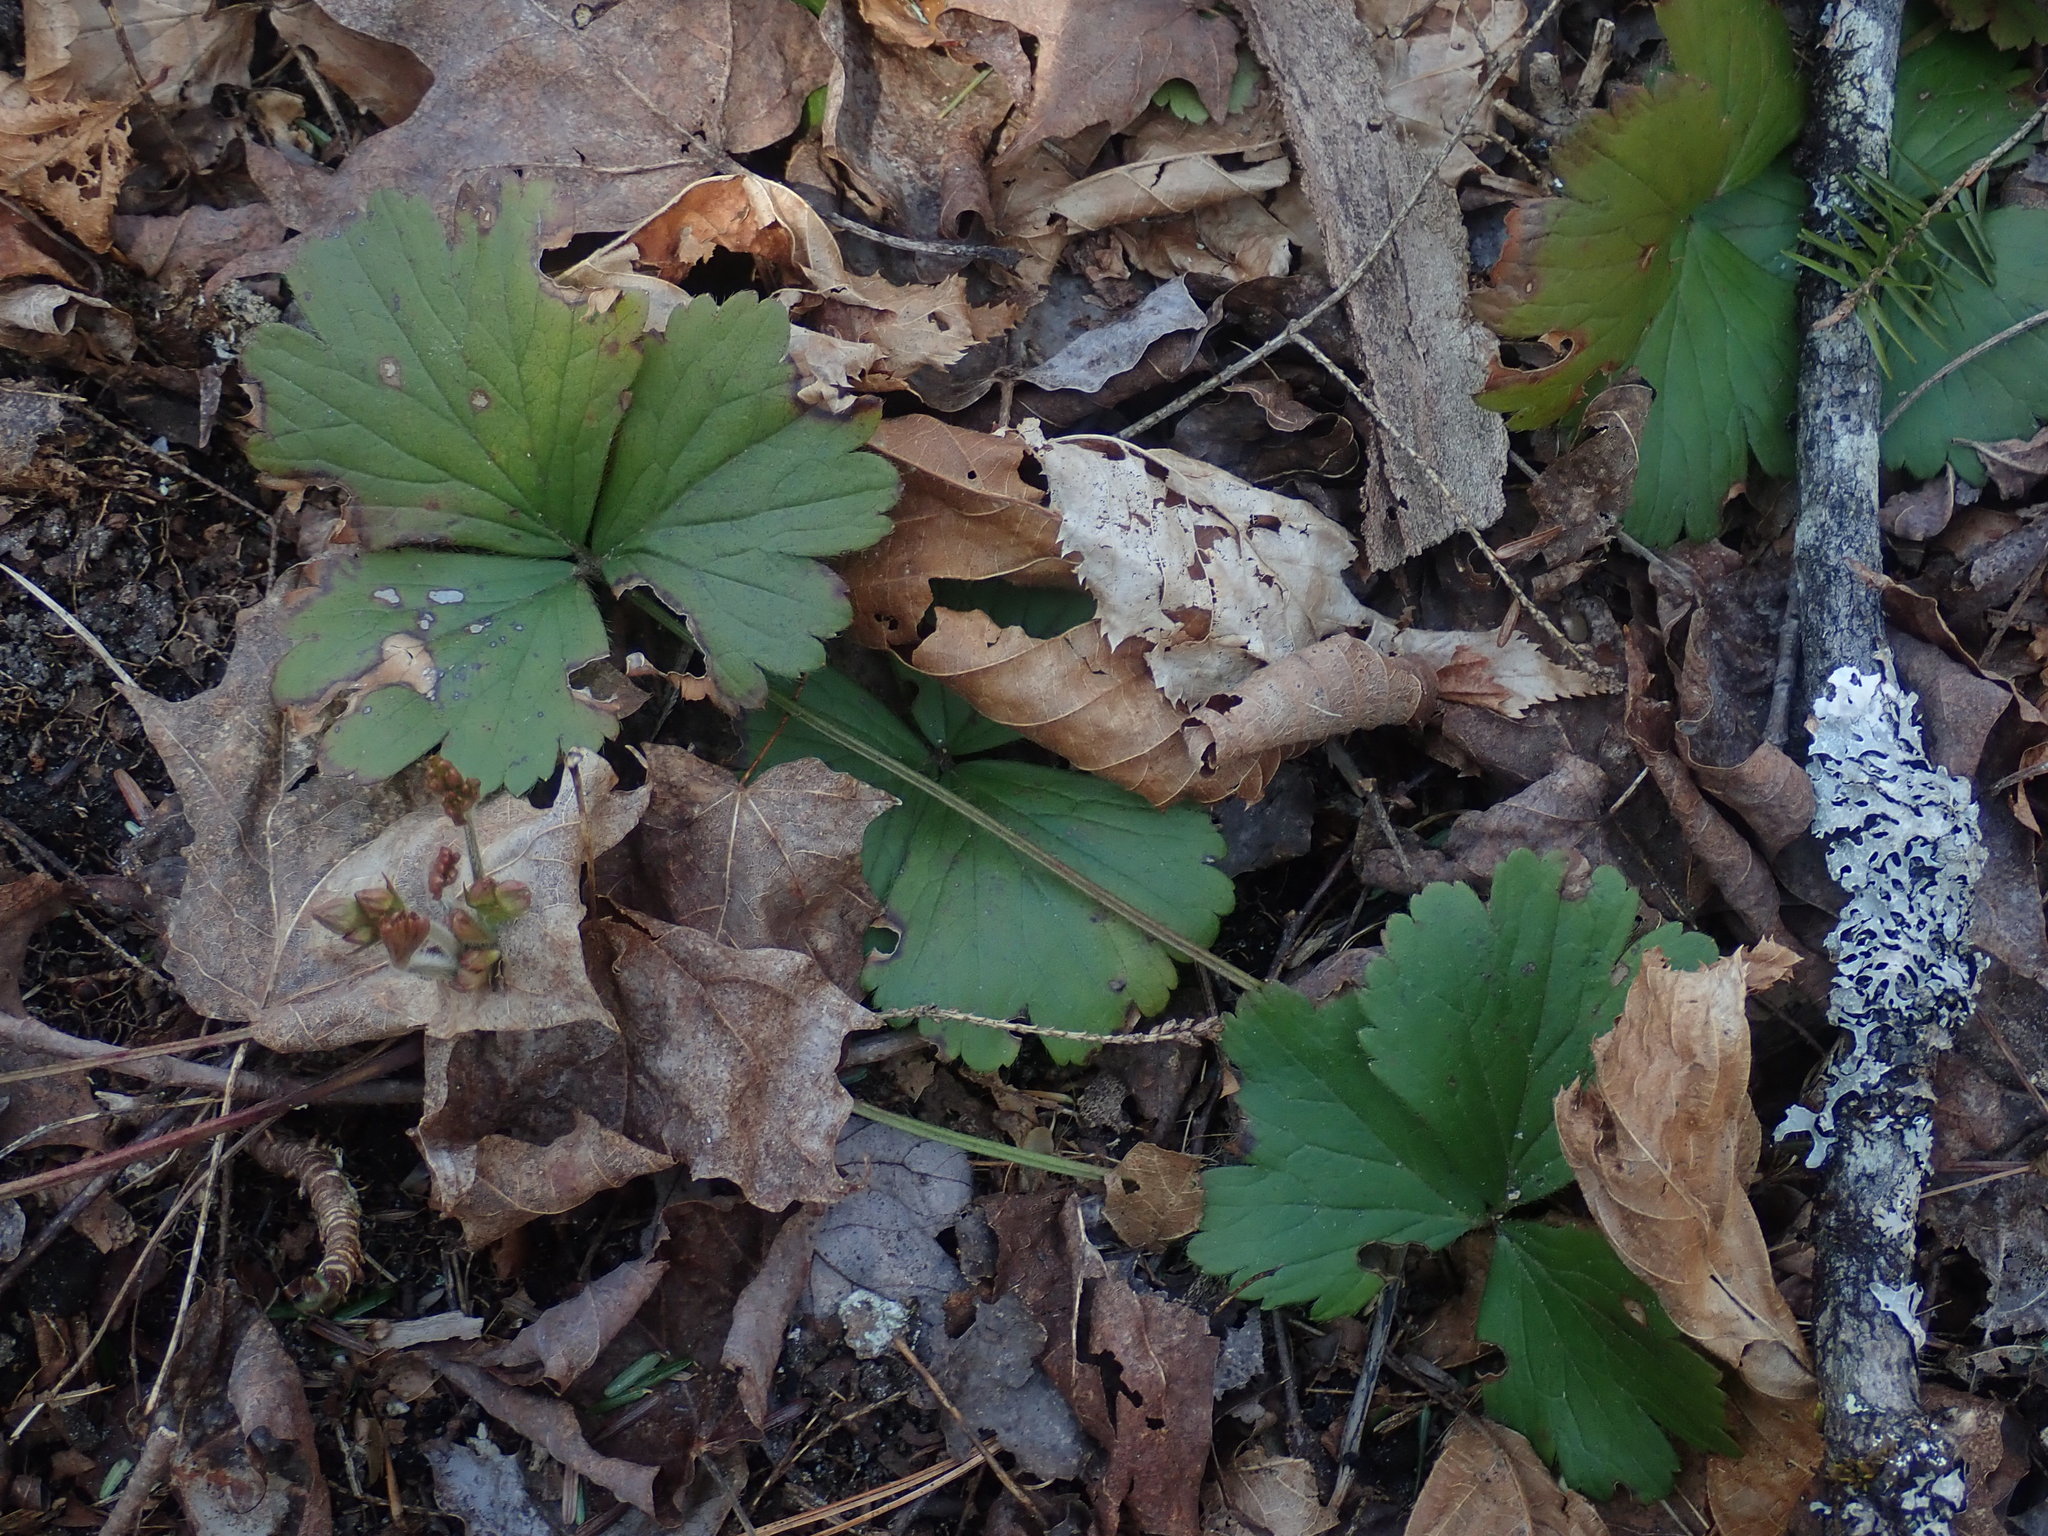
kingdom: Plantae
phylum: Tracheophyta
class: Magnoliopsida
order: Rosales
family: Rosaceae
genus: Geum
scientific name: Geum fragarioides
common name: Appalachian barren strawberry
